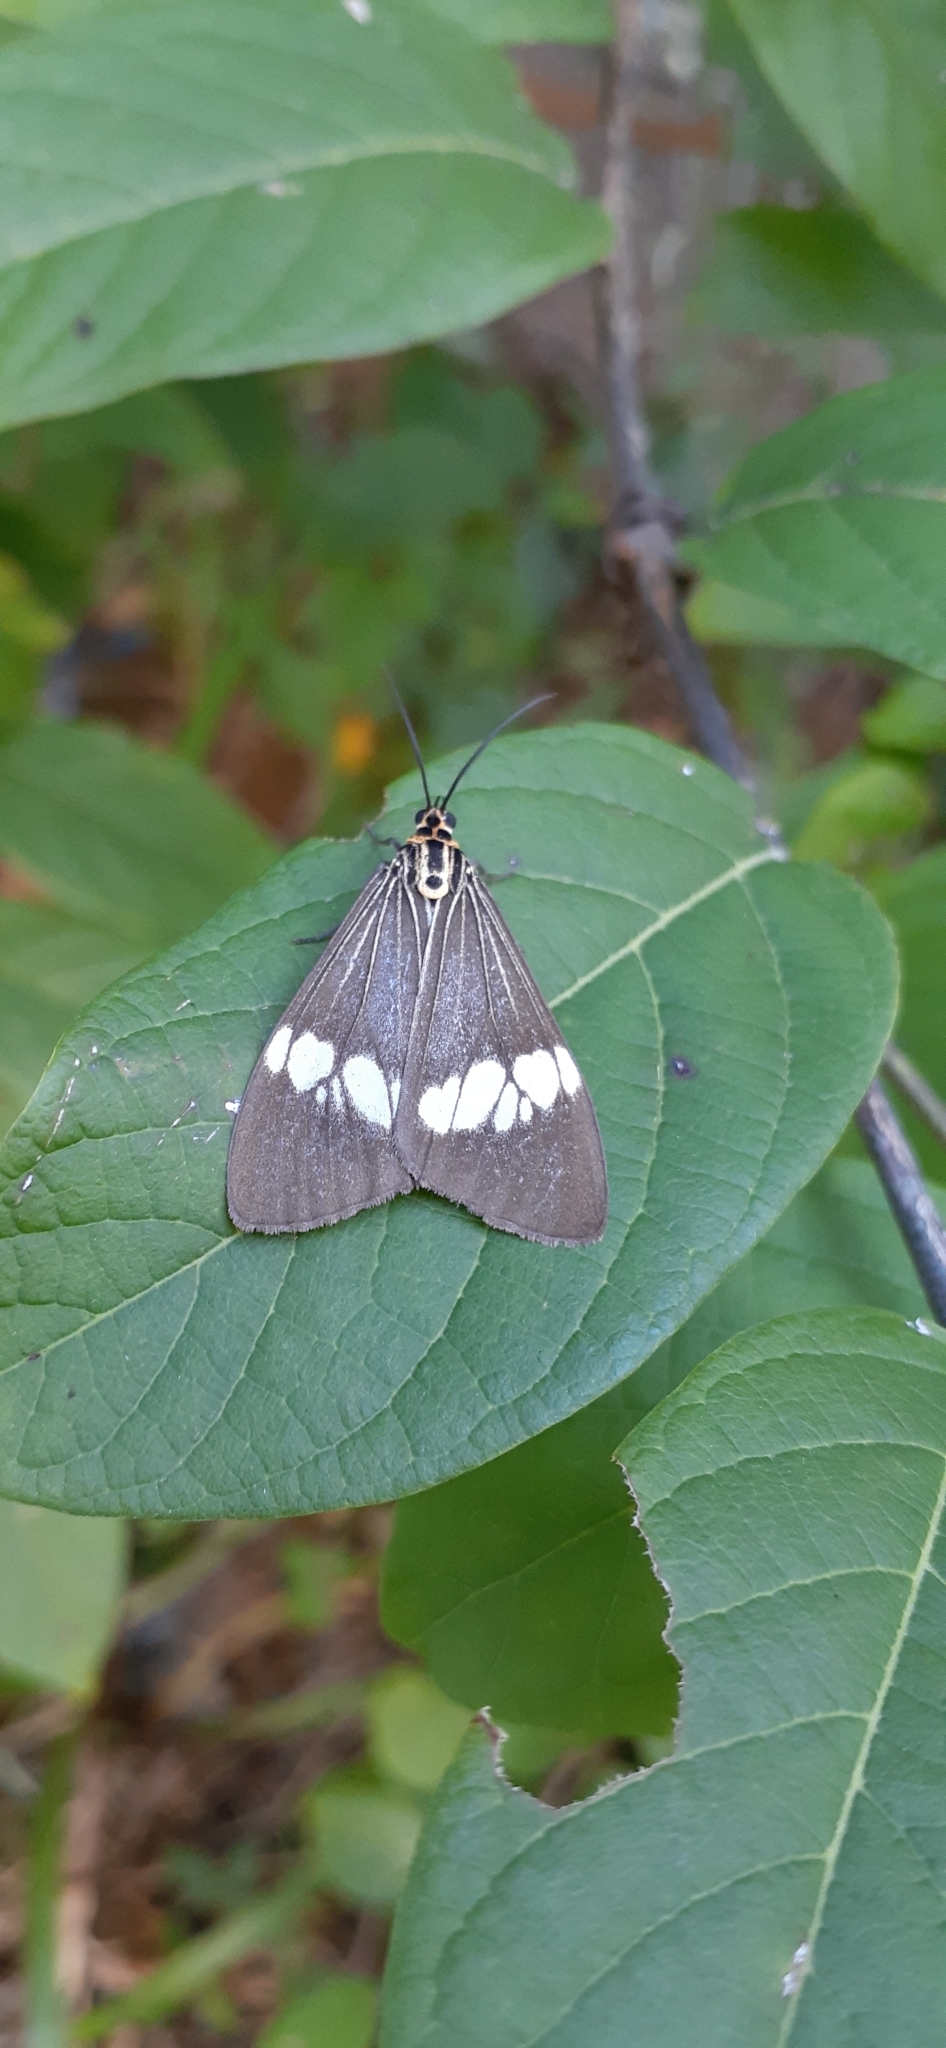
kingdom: Animalia
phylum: Arthropoda
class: Insecta
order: Lepidoptera
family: Erebidae
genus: Nyctemera
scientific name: Nyctemera baulus
